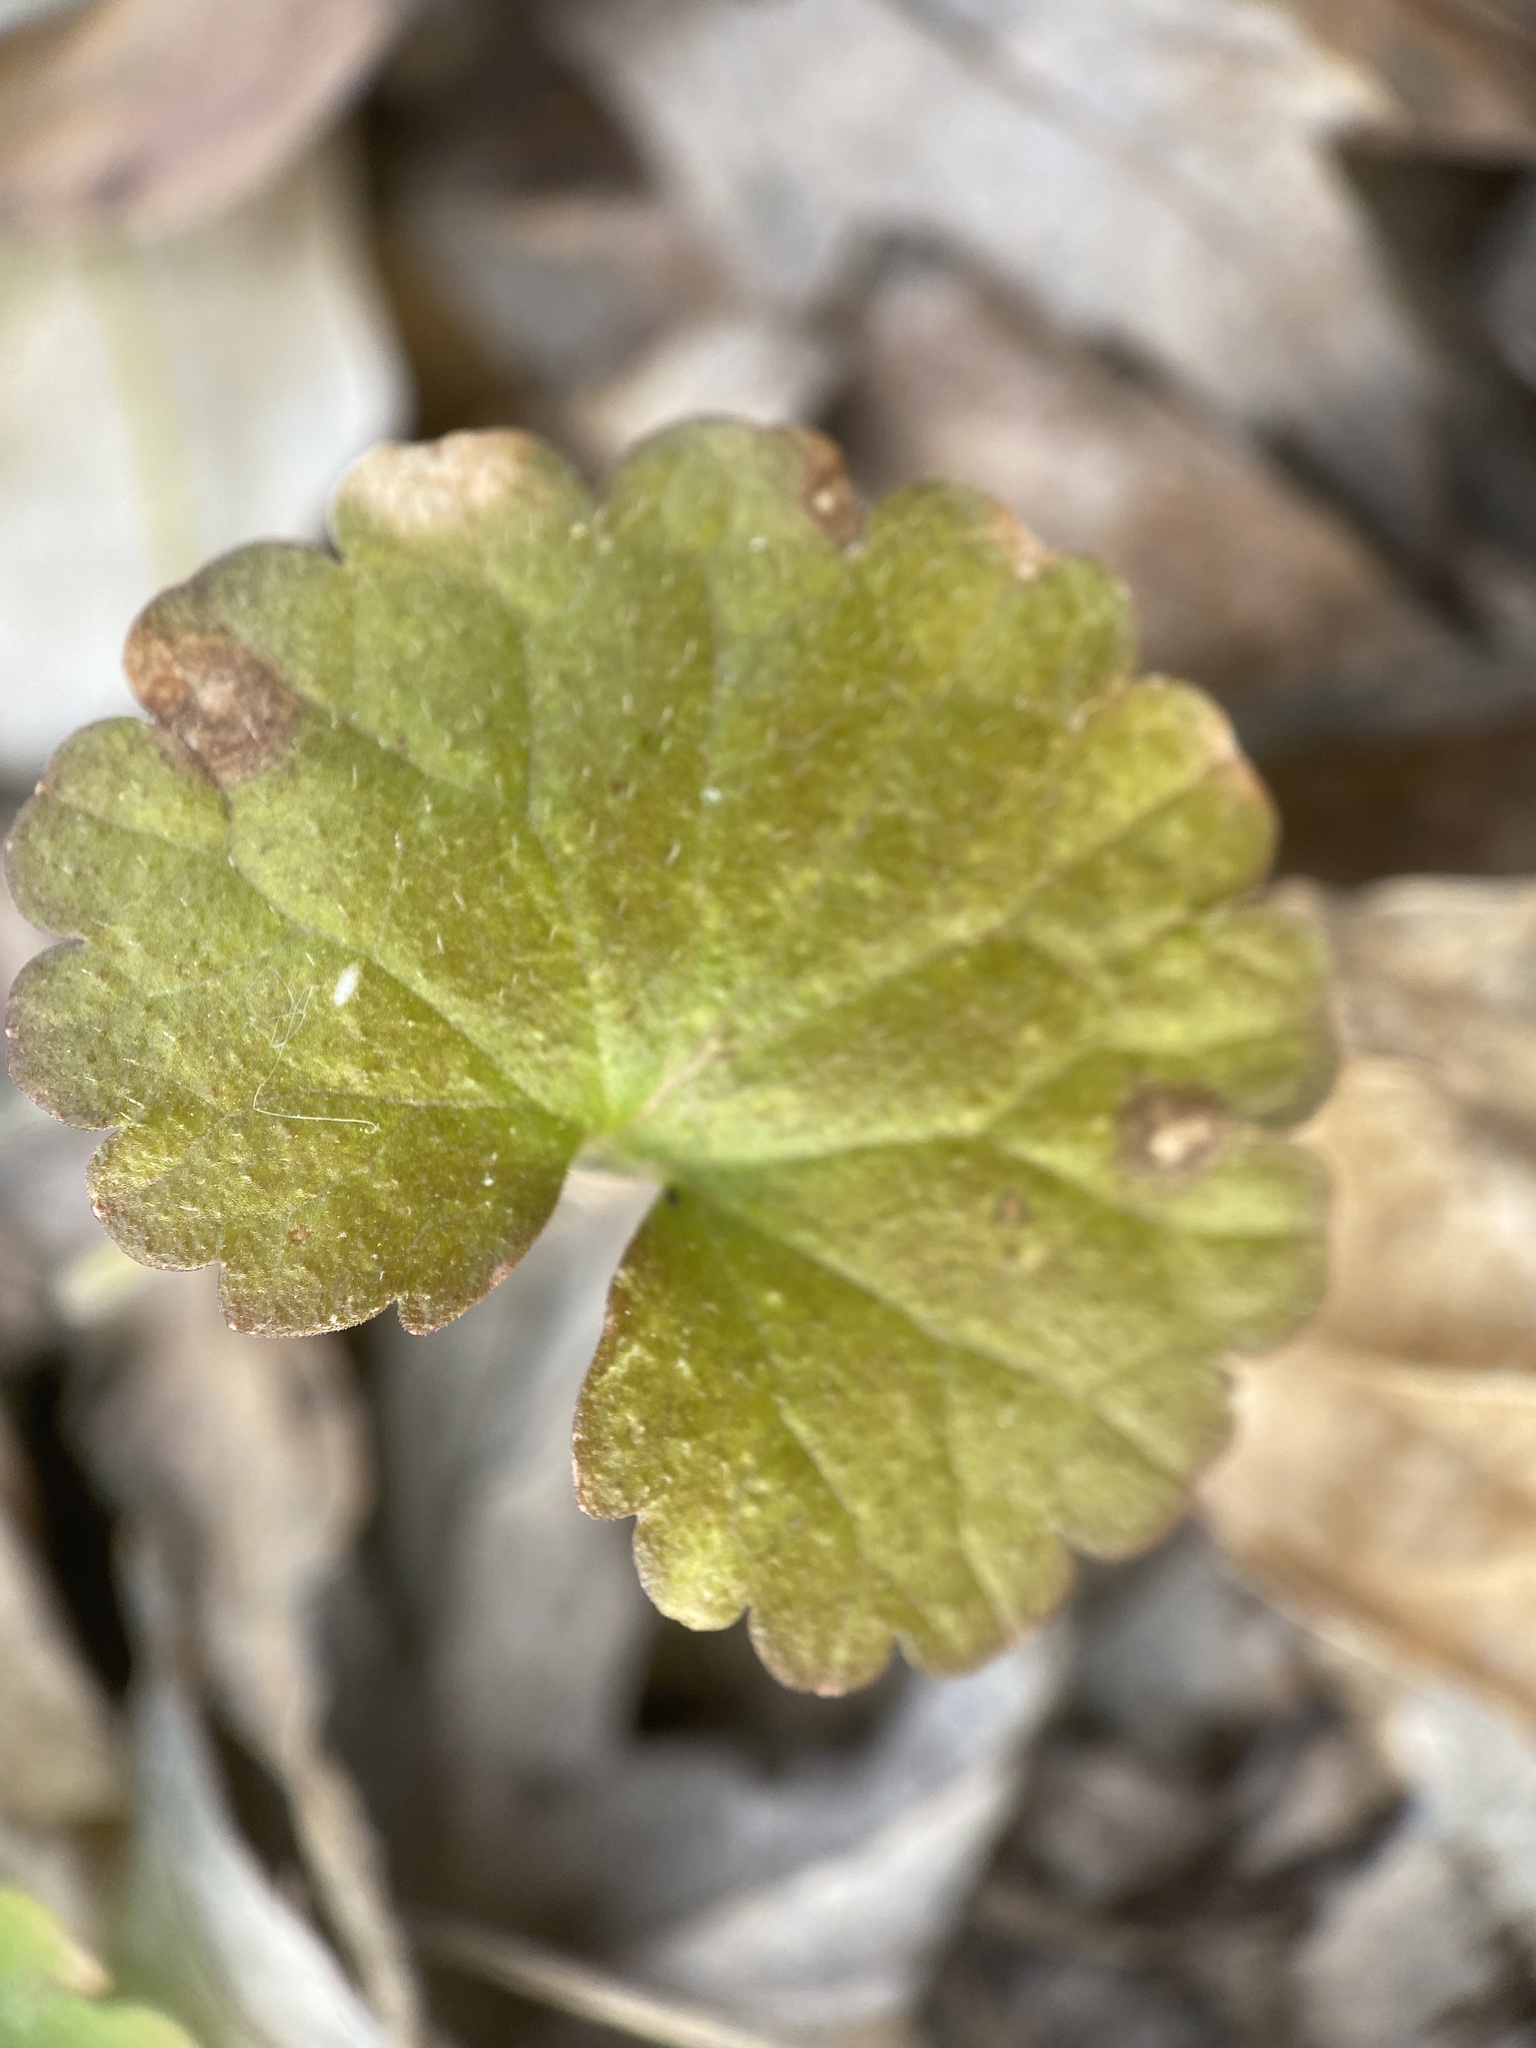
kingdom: Plantae
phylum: Tracheophyta
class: Magnoliopsida
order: Lamiales
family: Lamiaceae
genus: Glechoma
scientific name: Glechoma hederacea
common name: Ground ivy
